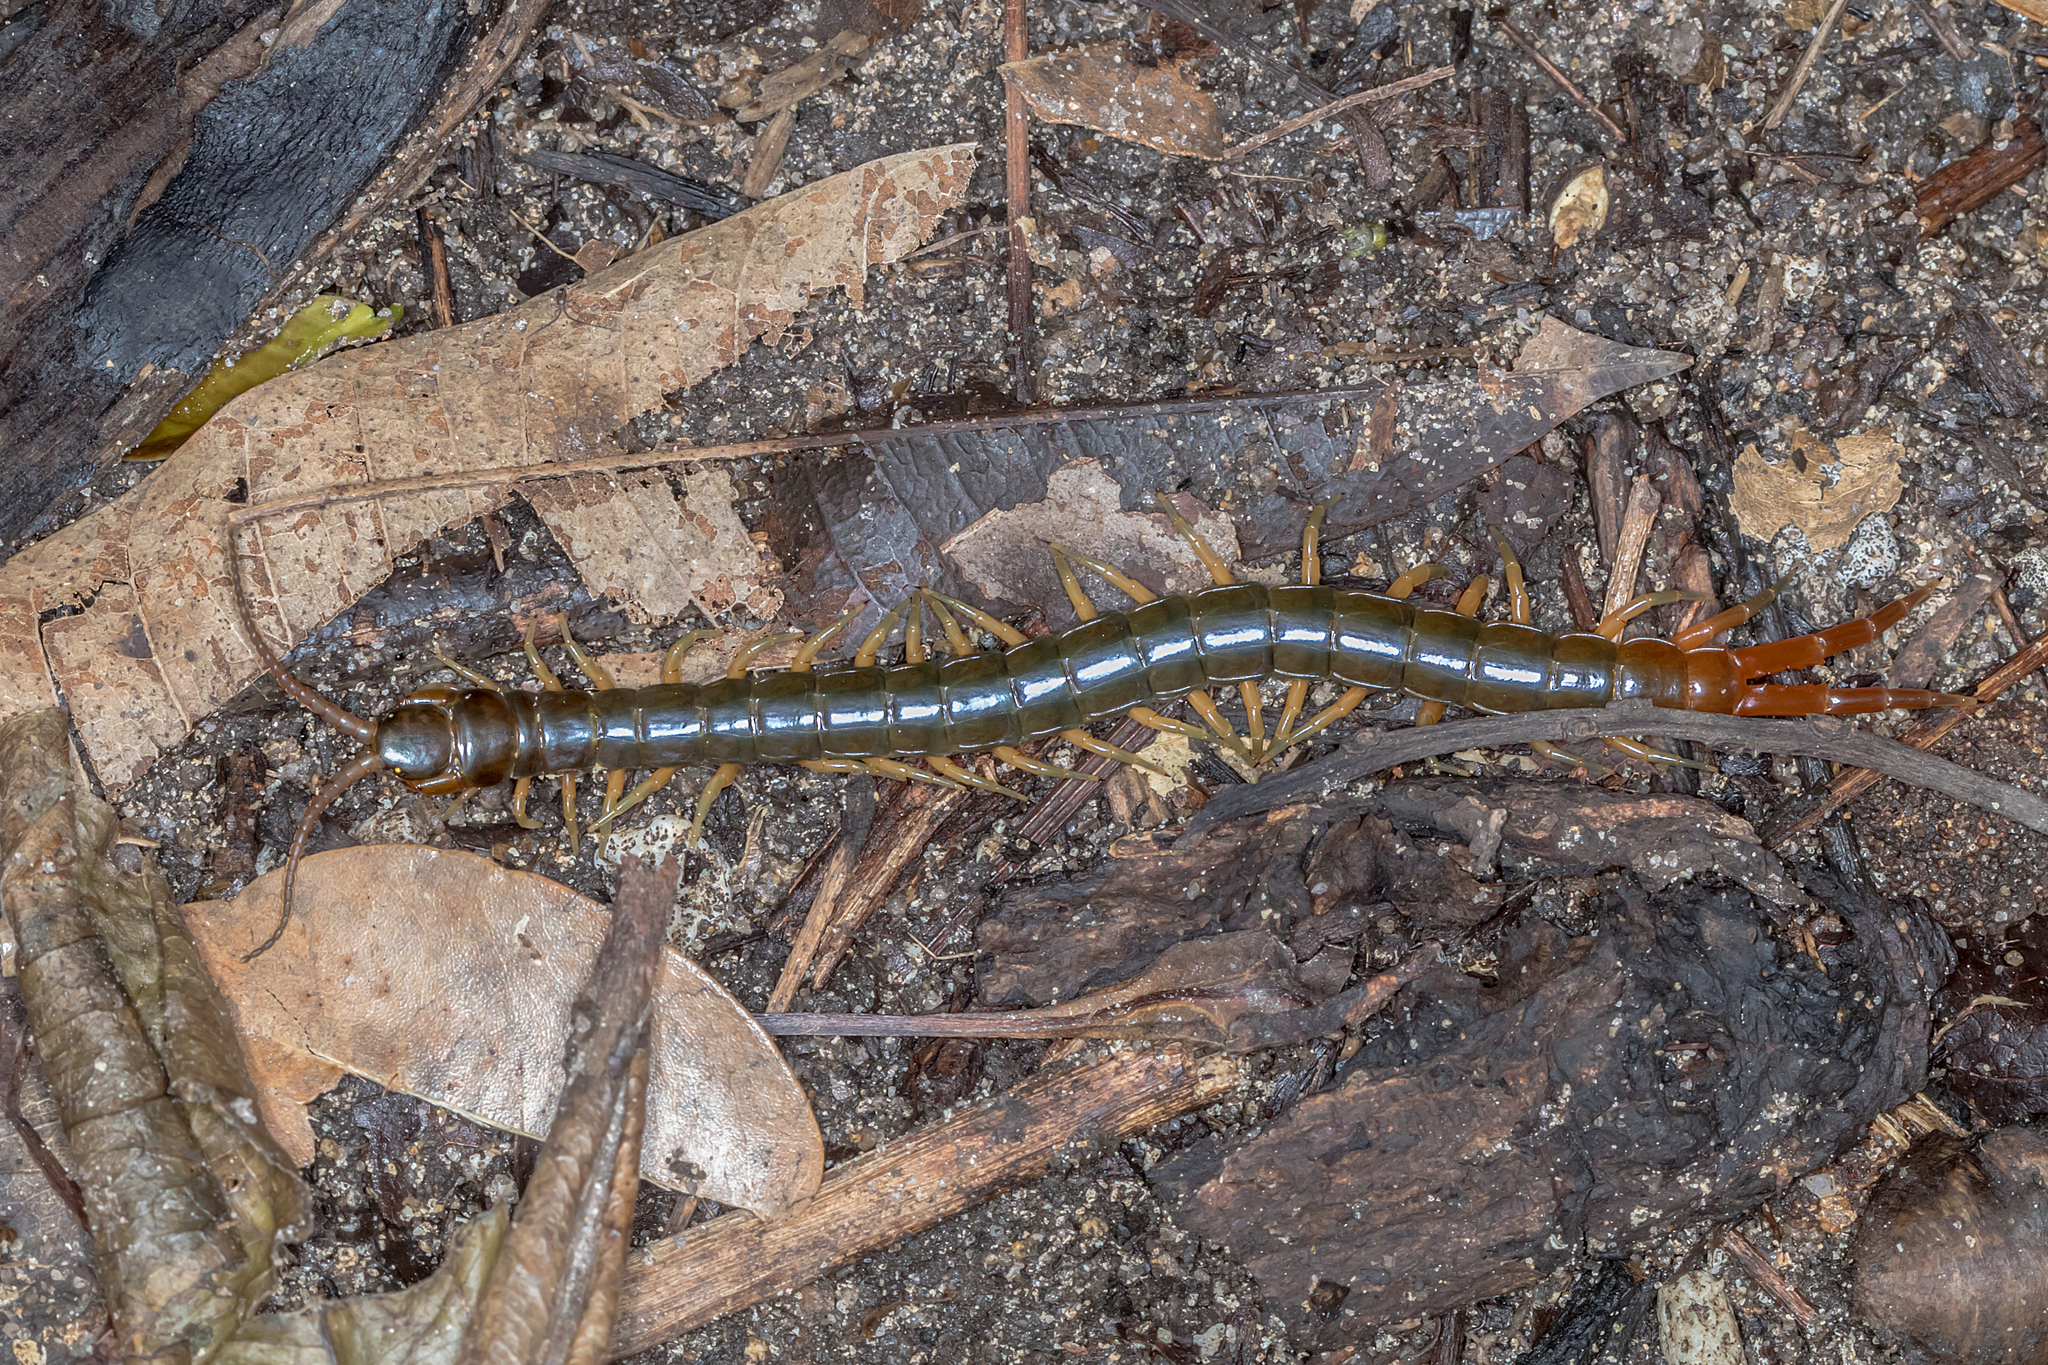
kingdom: Animalia
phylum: Arthropoda
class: Chilopoda
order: Scolopendromorpha
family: Scolopendridae
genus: Ethmostigmus
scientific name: Ethmostigmus rubripes
